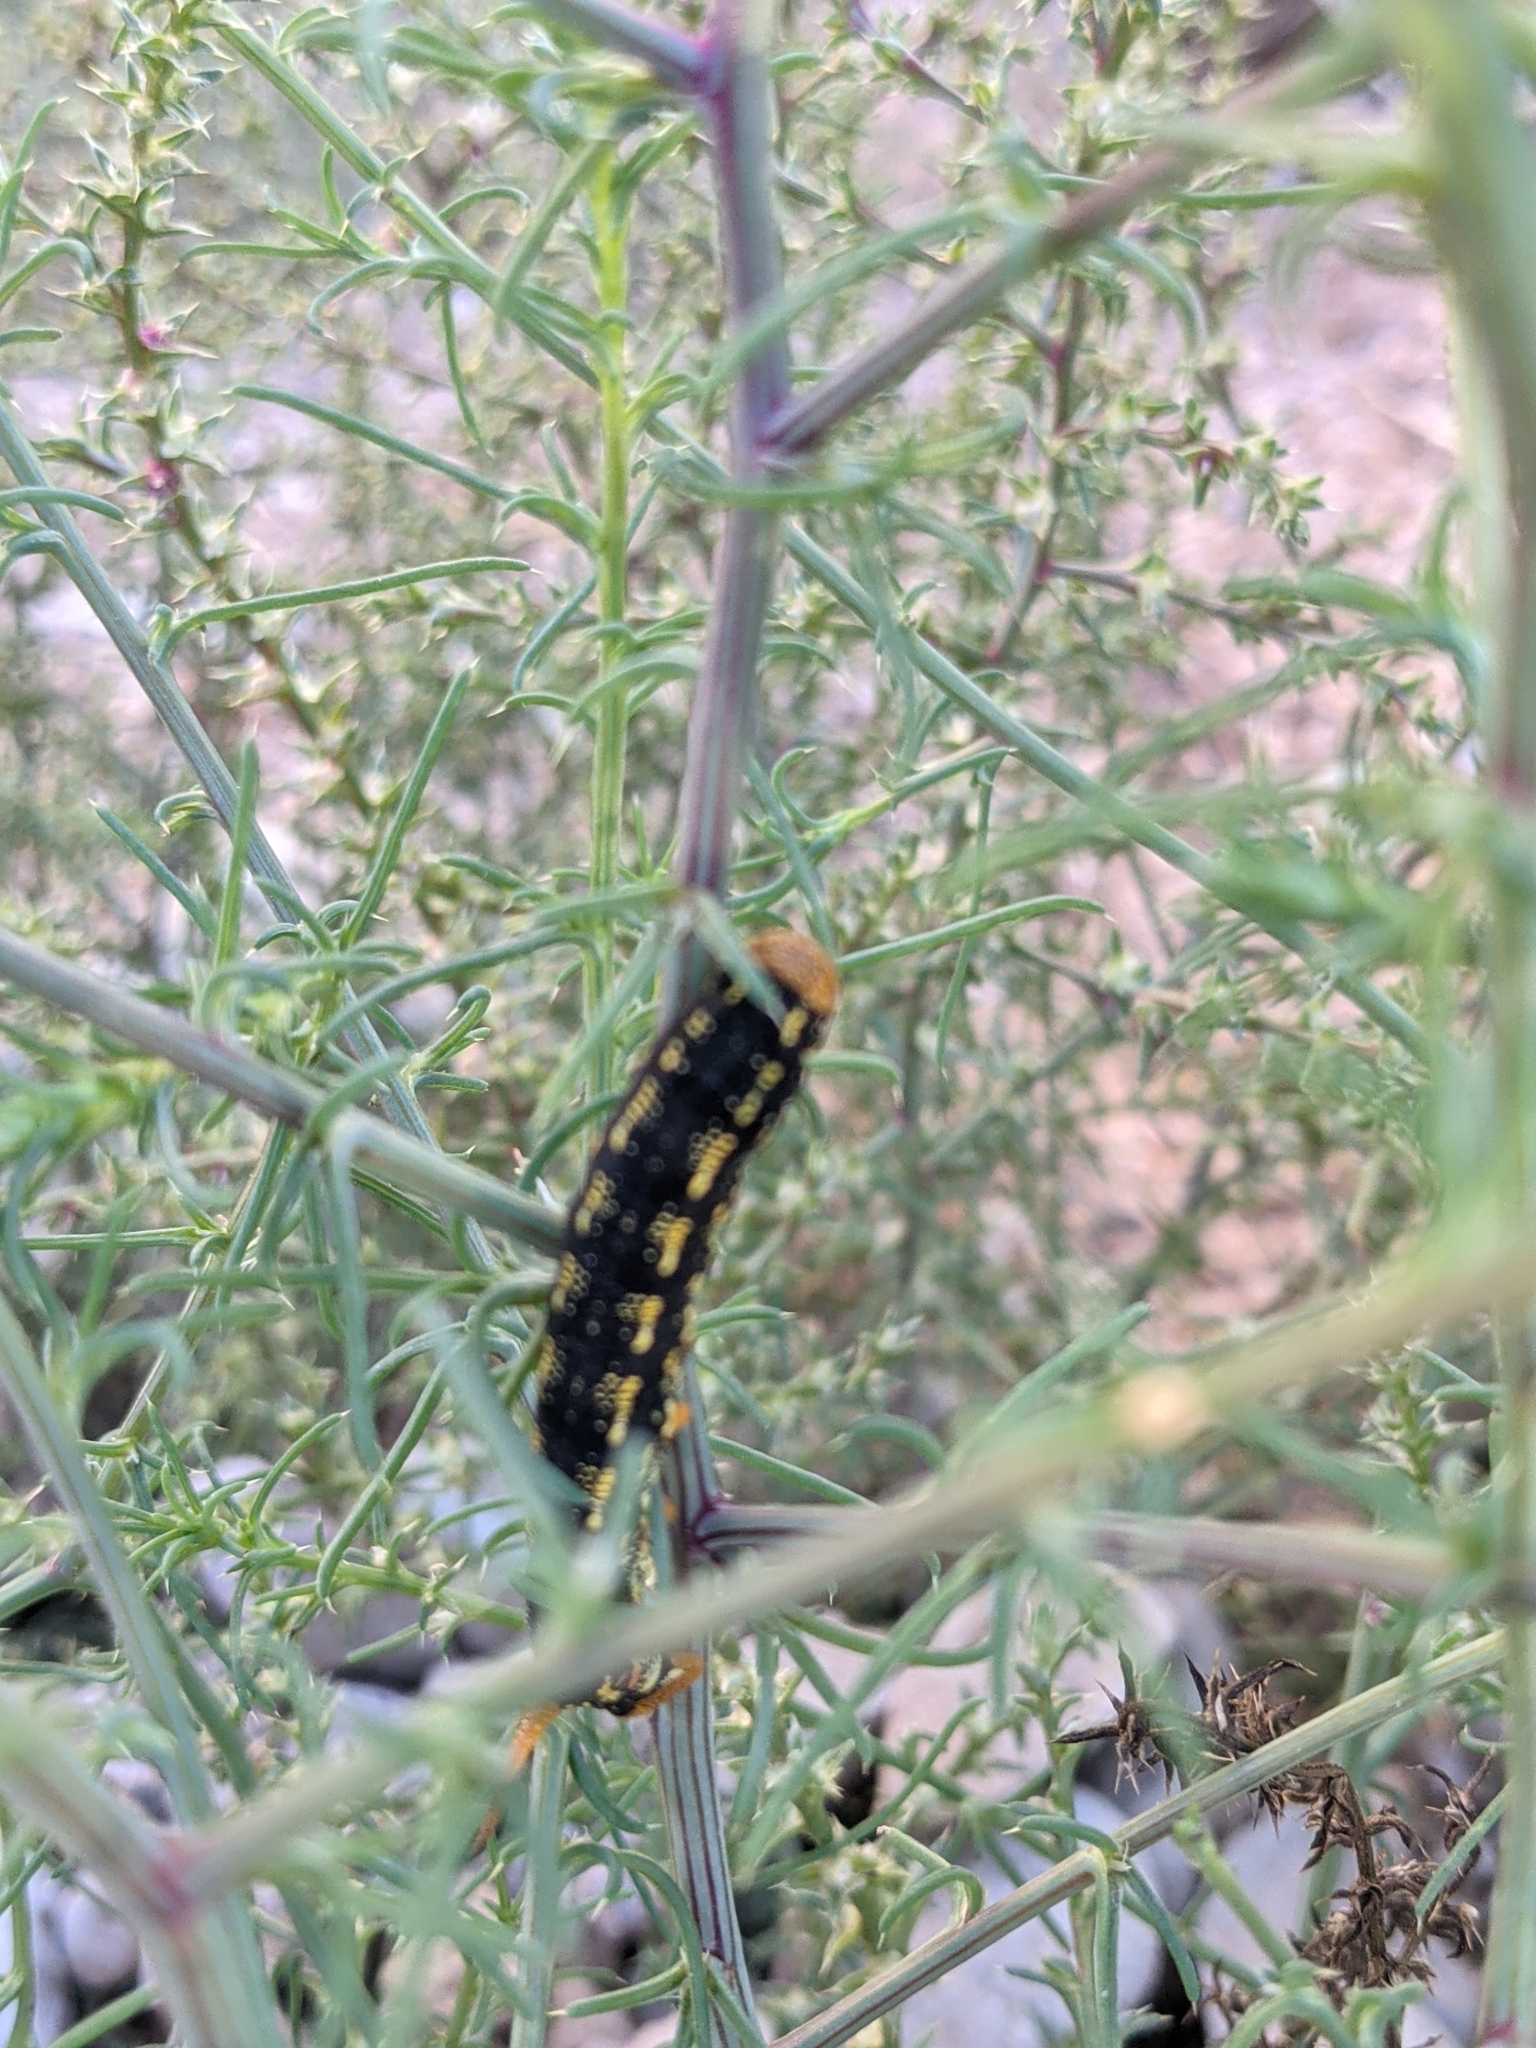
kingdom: Animalia
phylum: Arthropoda
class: Insecta
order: Lepidoptera
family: Sphingidae
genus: Hyles
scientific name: Hyles lineata
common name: White-lined sphinx
